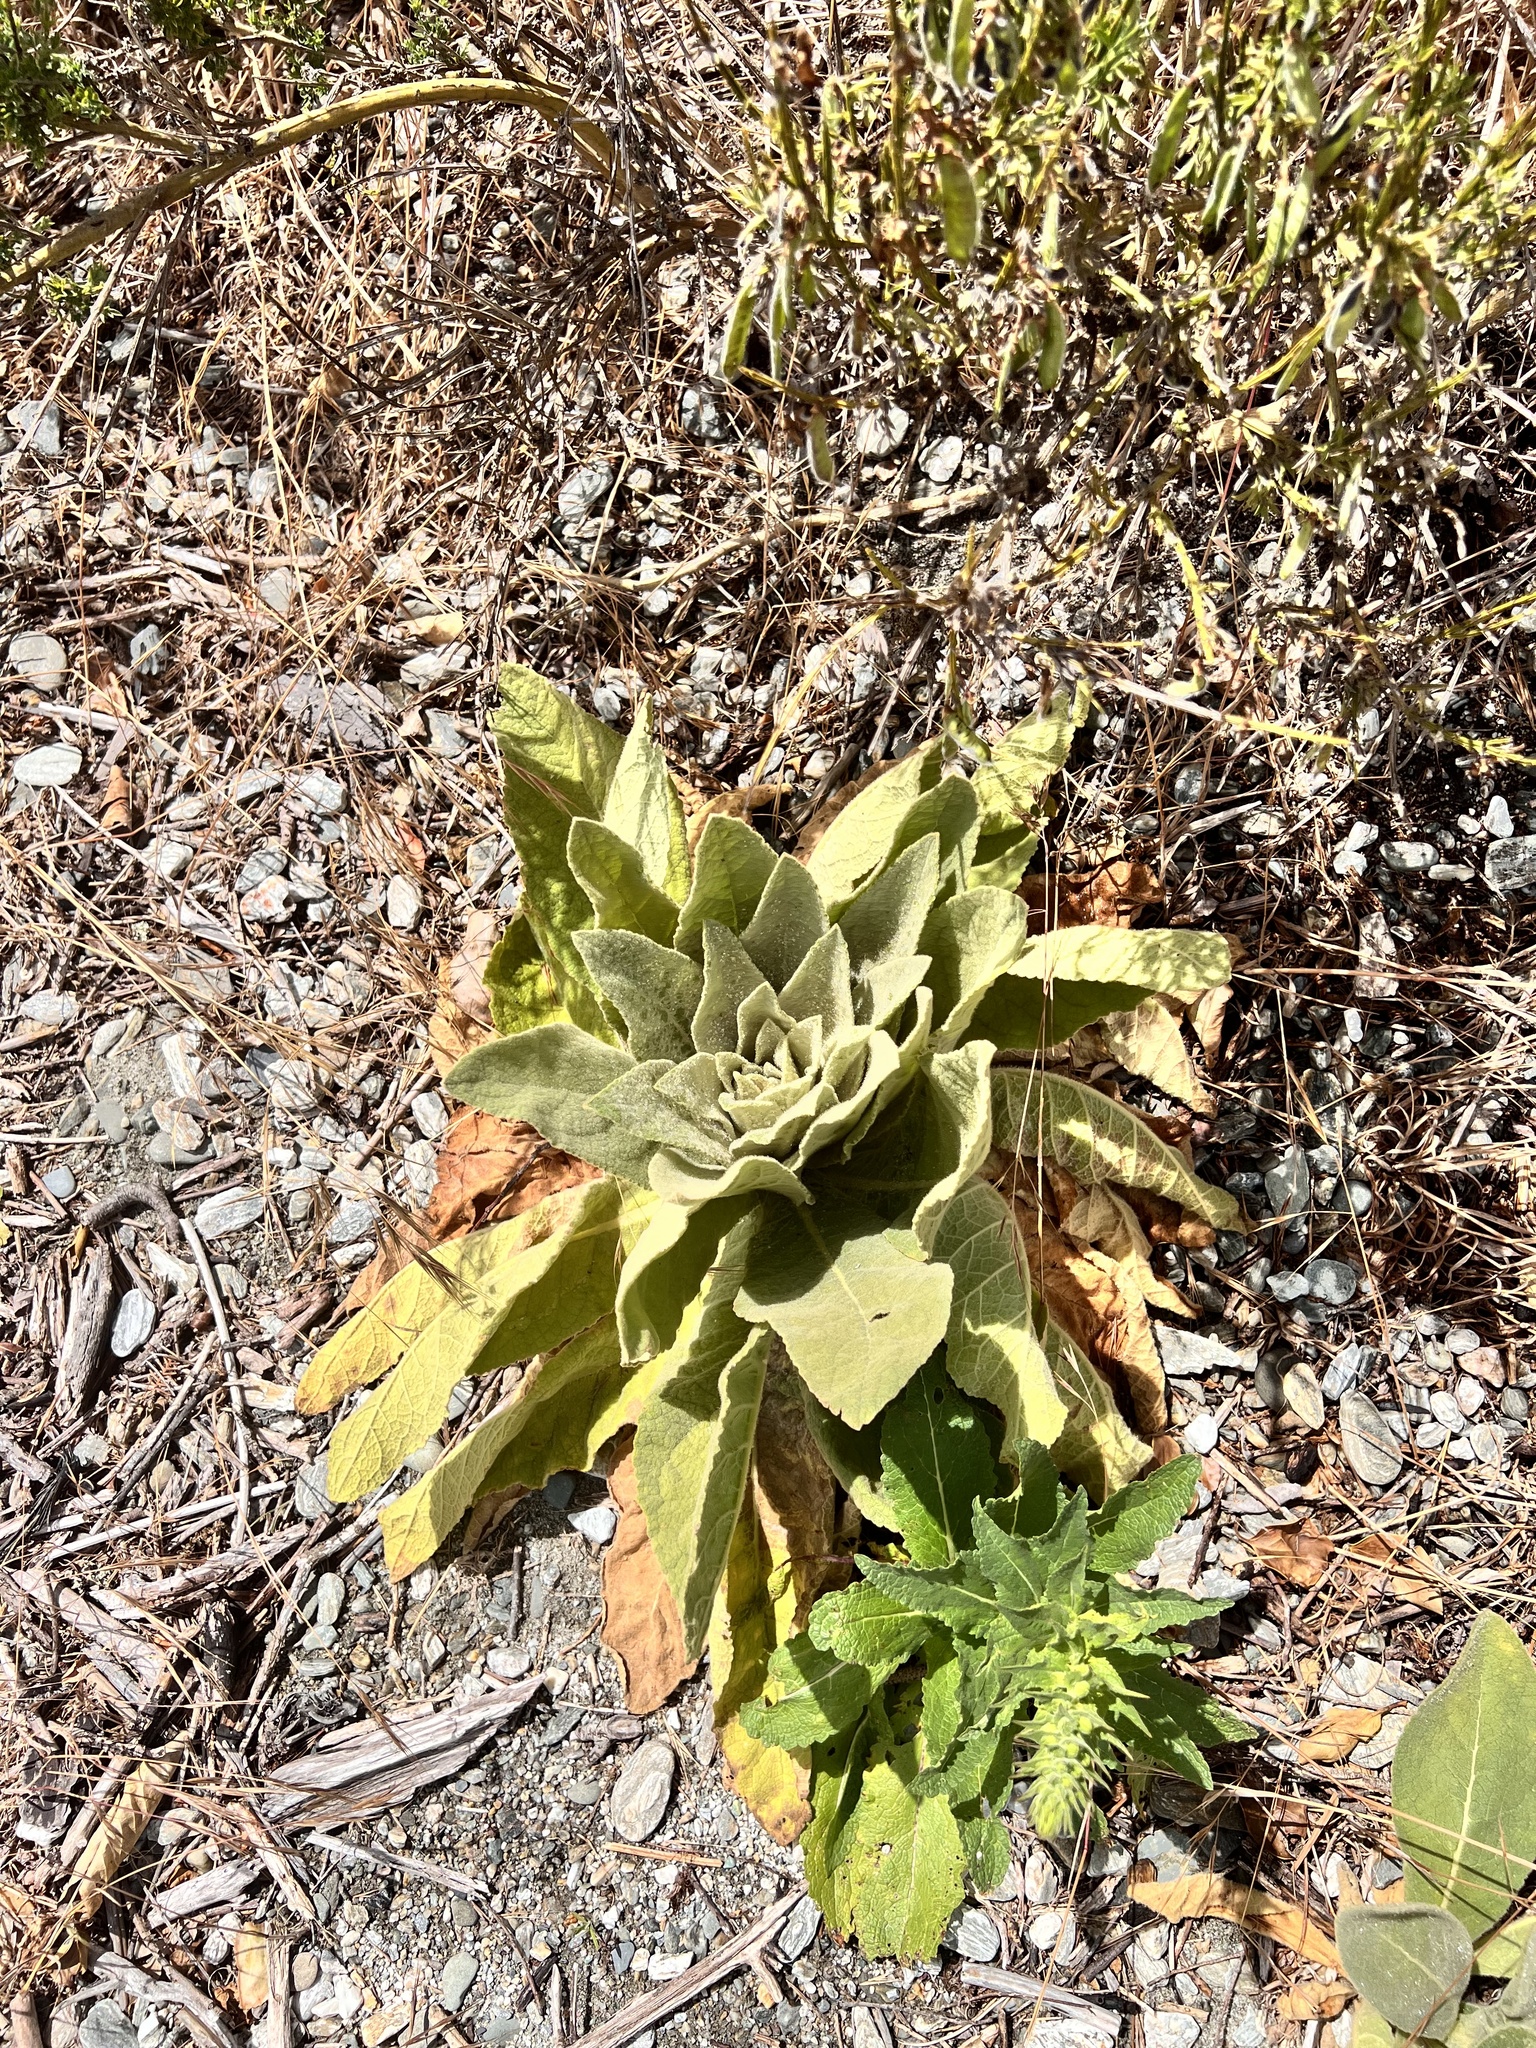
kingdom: Plantae
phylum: Tracheophyta
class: Magnoliopsida
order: Lamiales
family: Scrophulariaceae
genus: Verbascum
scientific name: Verbascum thapsus
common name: Common mullein
